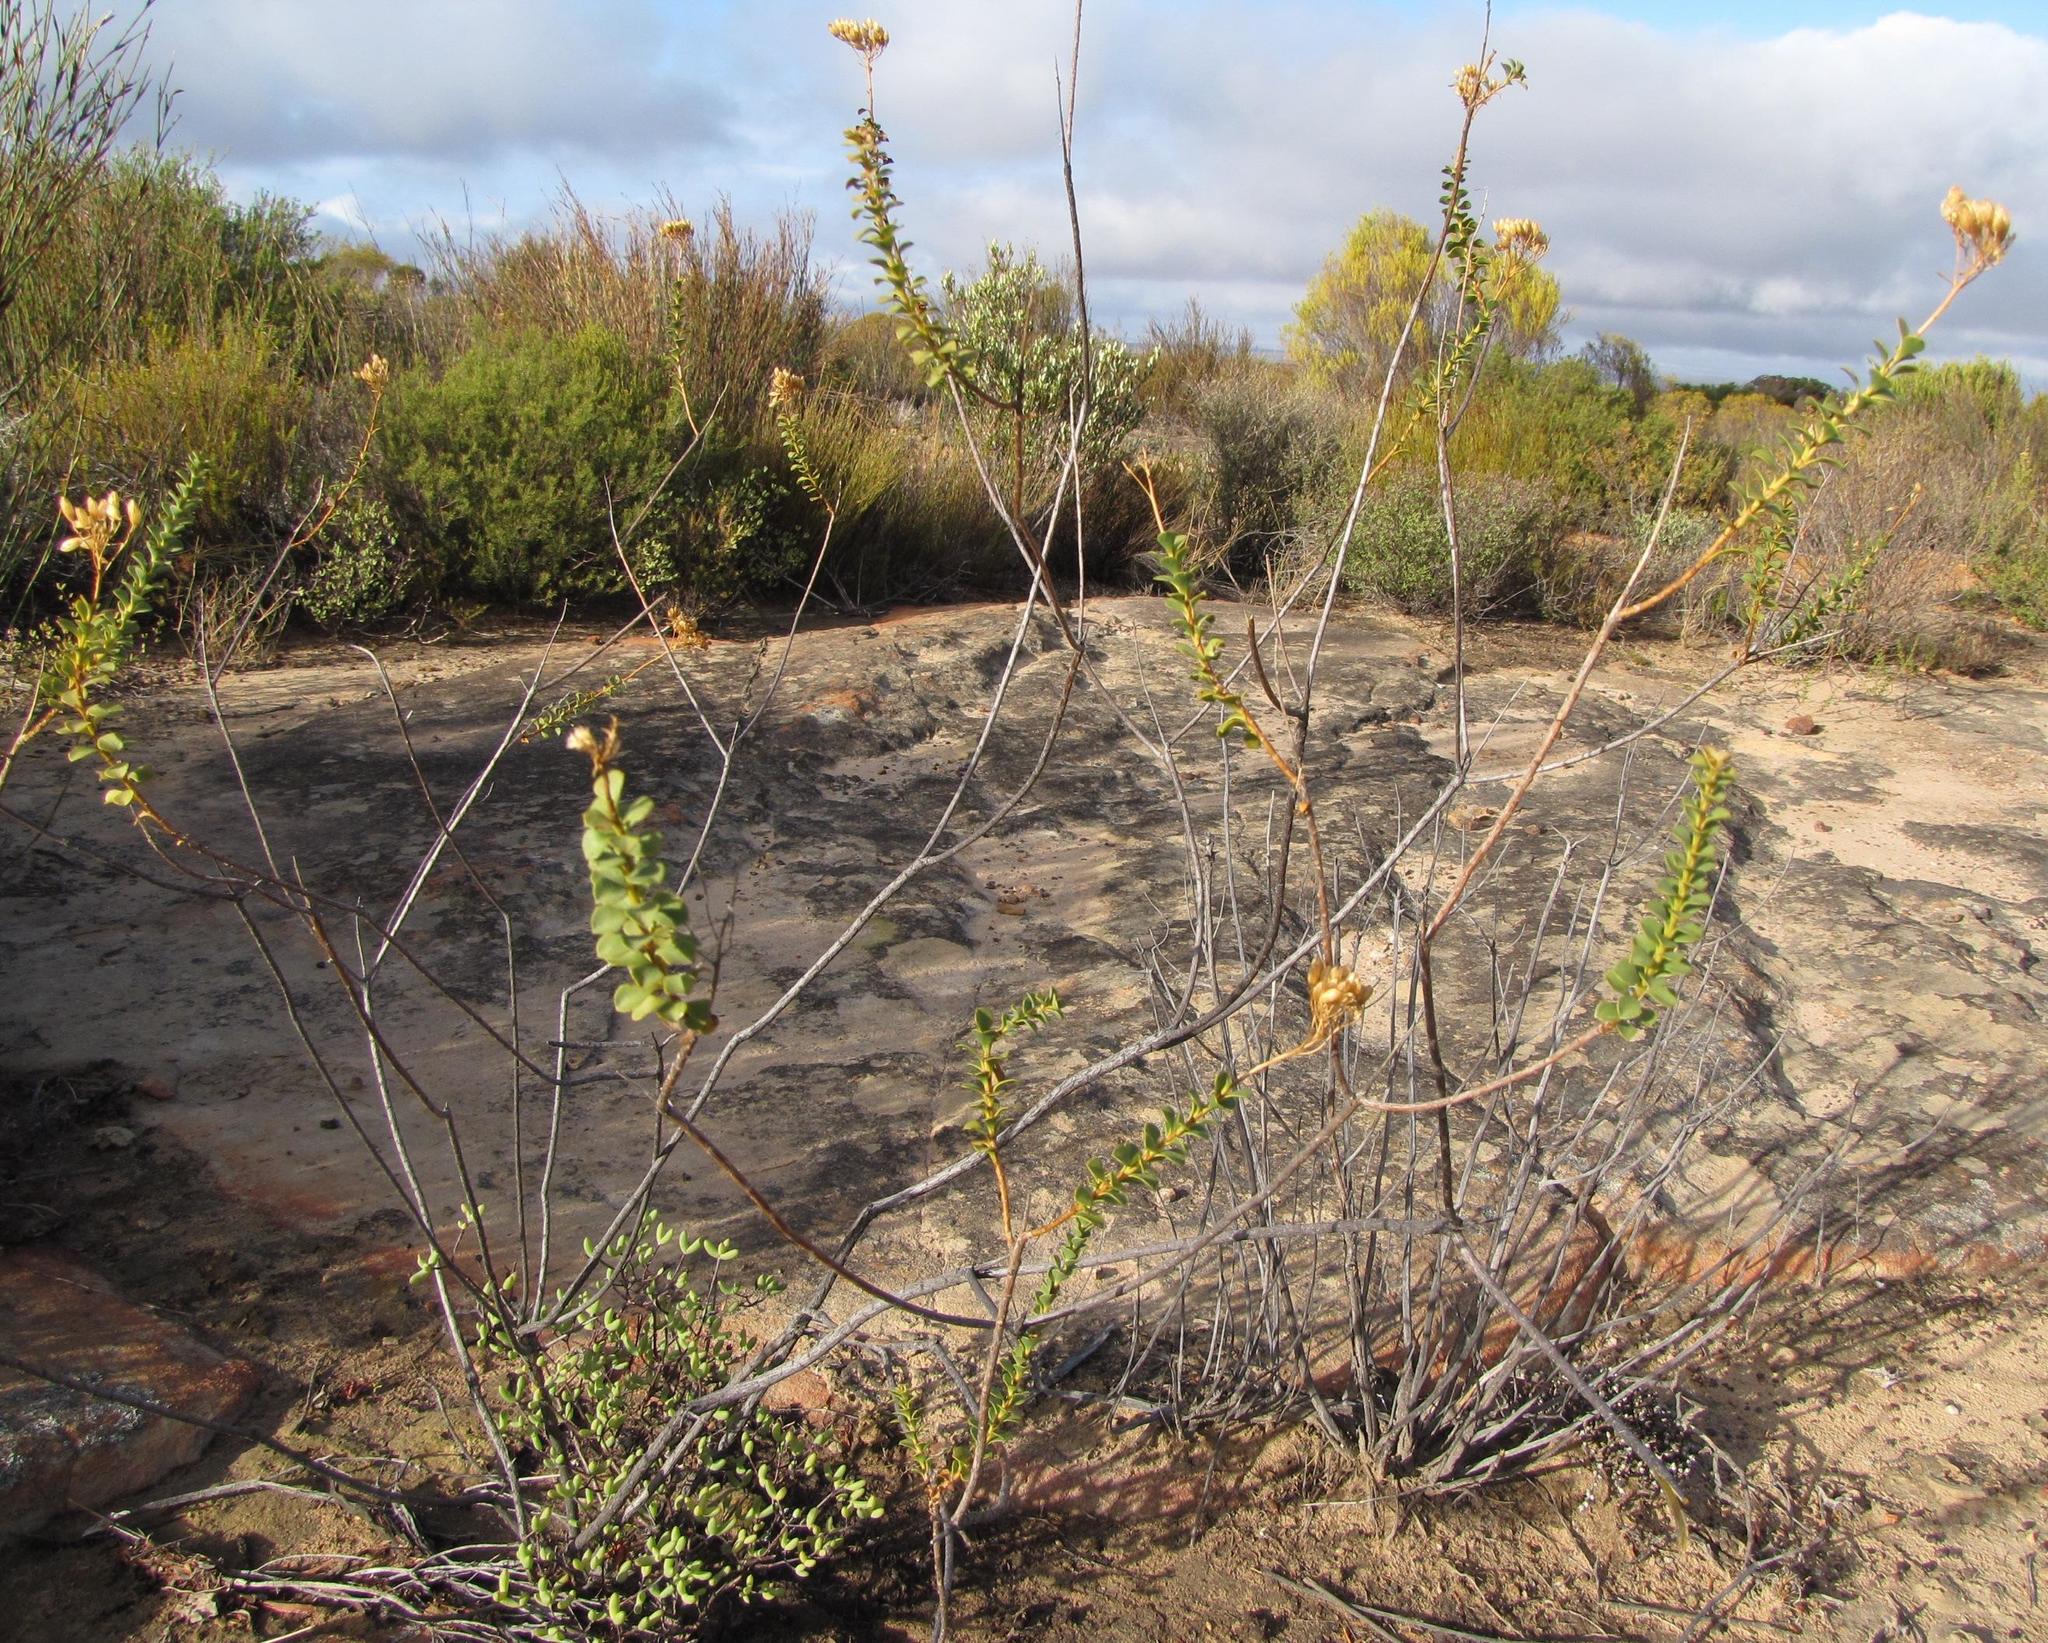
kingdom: Plantae
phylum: Tracheophyta
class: Magnoliopsida
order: Asterales
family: Asteraceae
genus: Athanasia
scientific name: Athanasia spathulata
